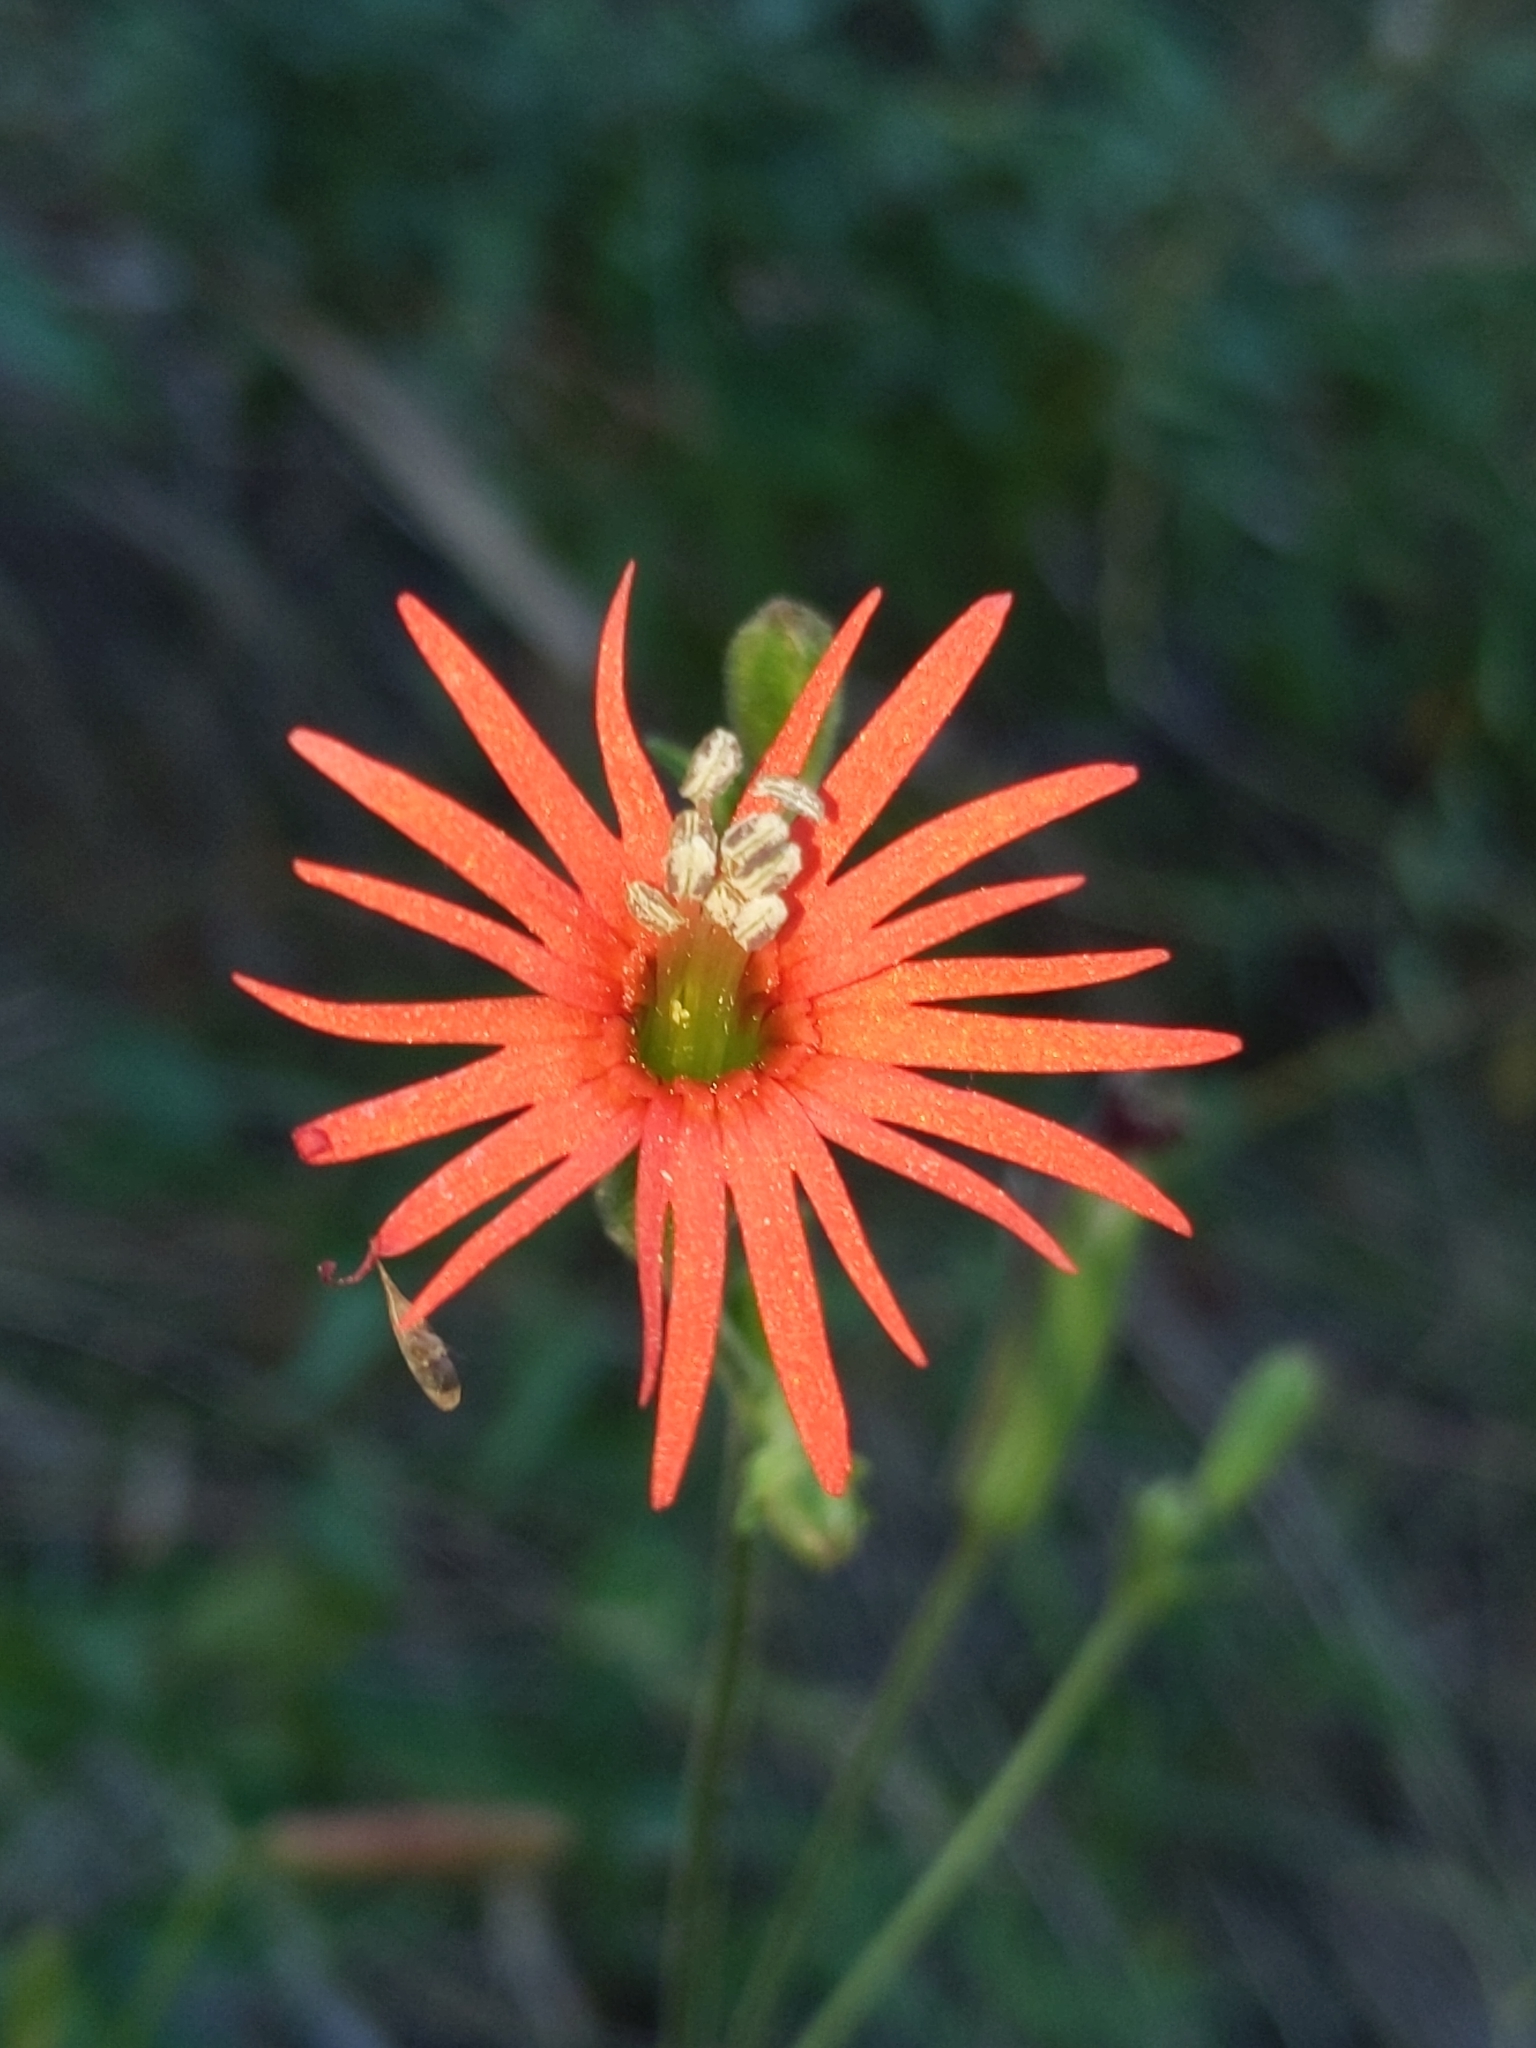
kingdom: Plantae
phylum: Tracheophyta
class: Magnoliopsida
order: Caryophyllales
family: Caryophyllaceae
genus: Silene
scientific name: Silene laciniata
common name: Indian-pink
